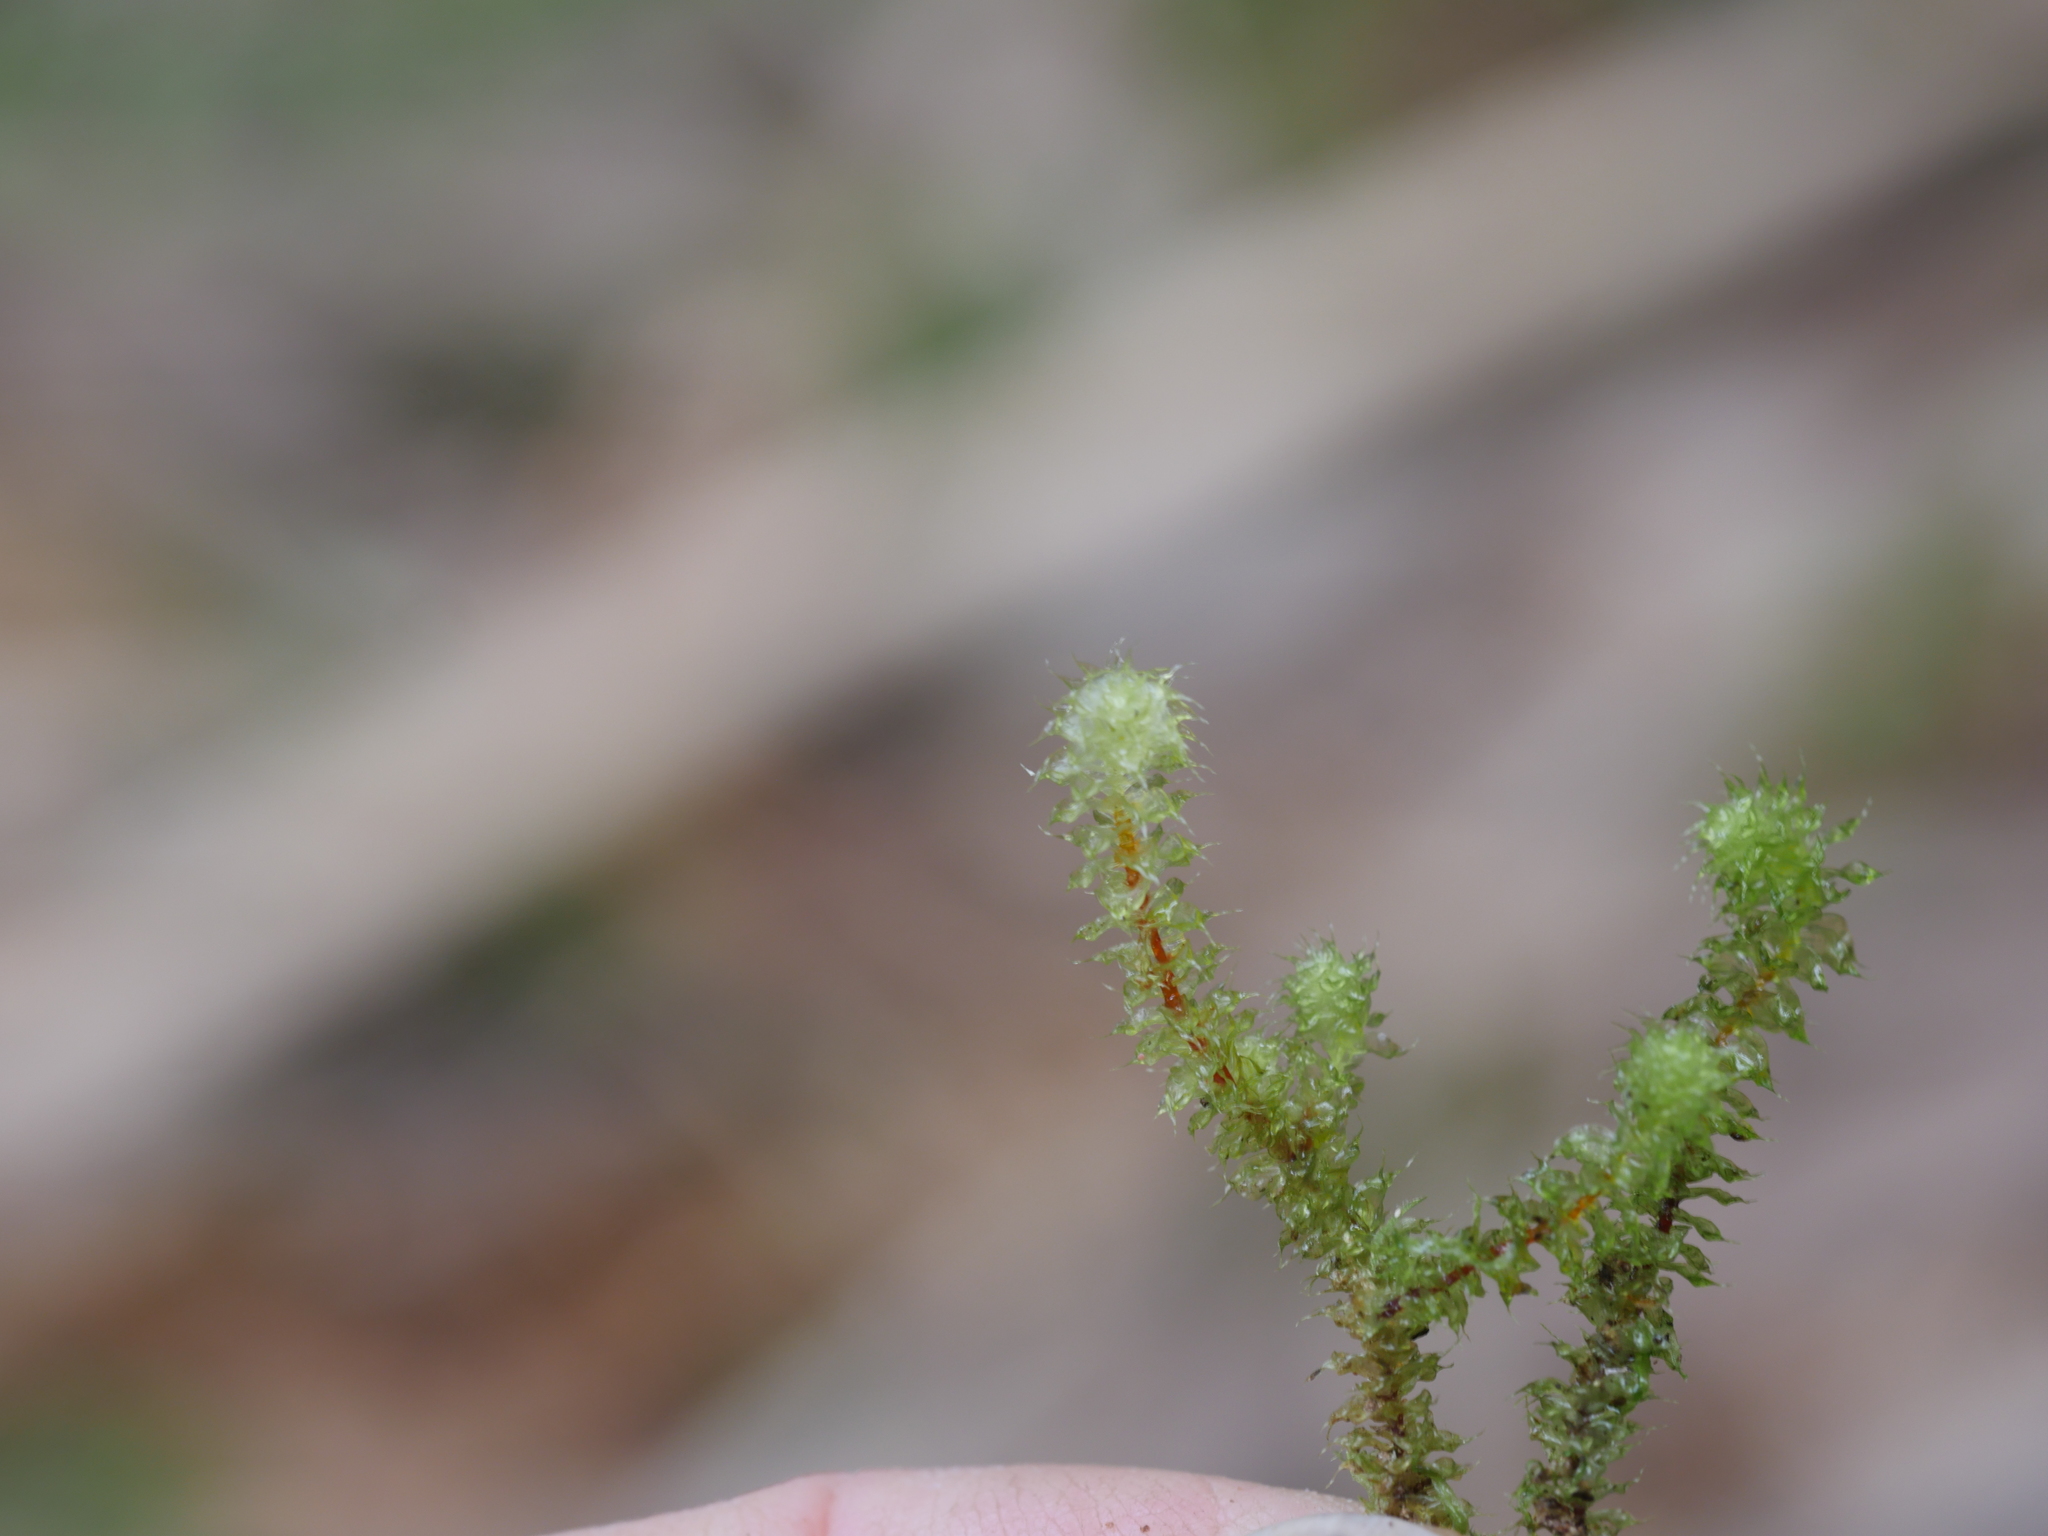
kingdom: Plantae
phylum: Bryophyta
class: Bryopsida
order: Ptychomniales
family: Ptychomniaceae
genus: Ptychomnion
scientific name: Ptychomnion aciculare
